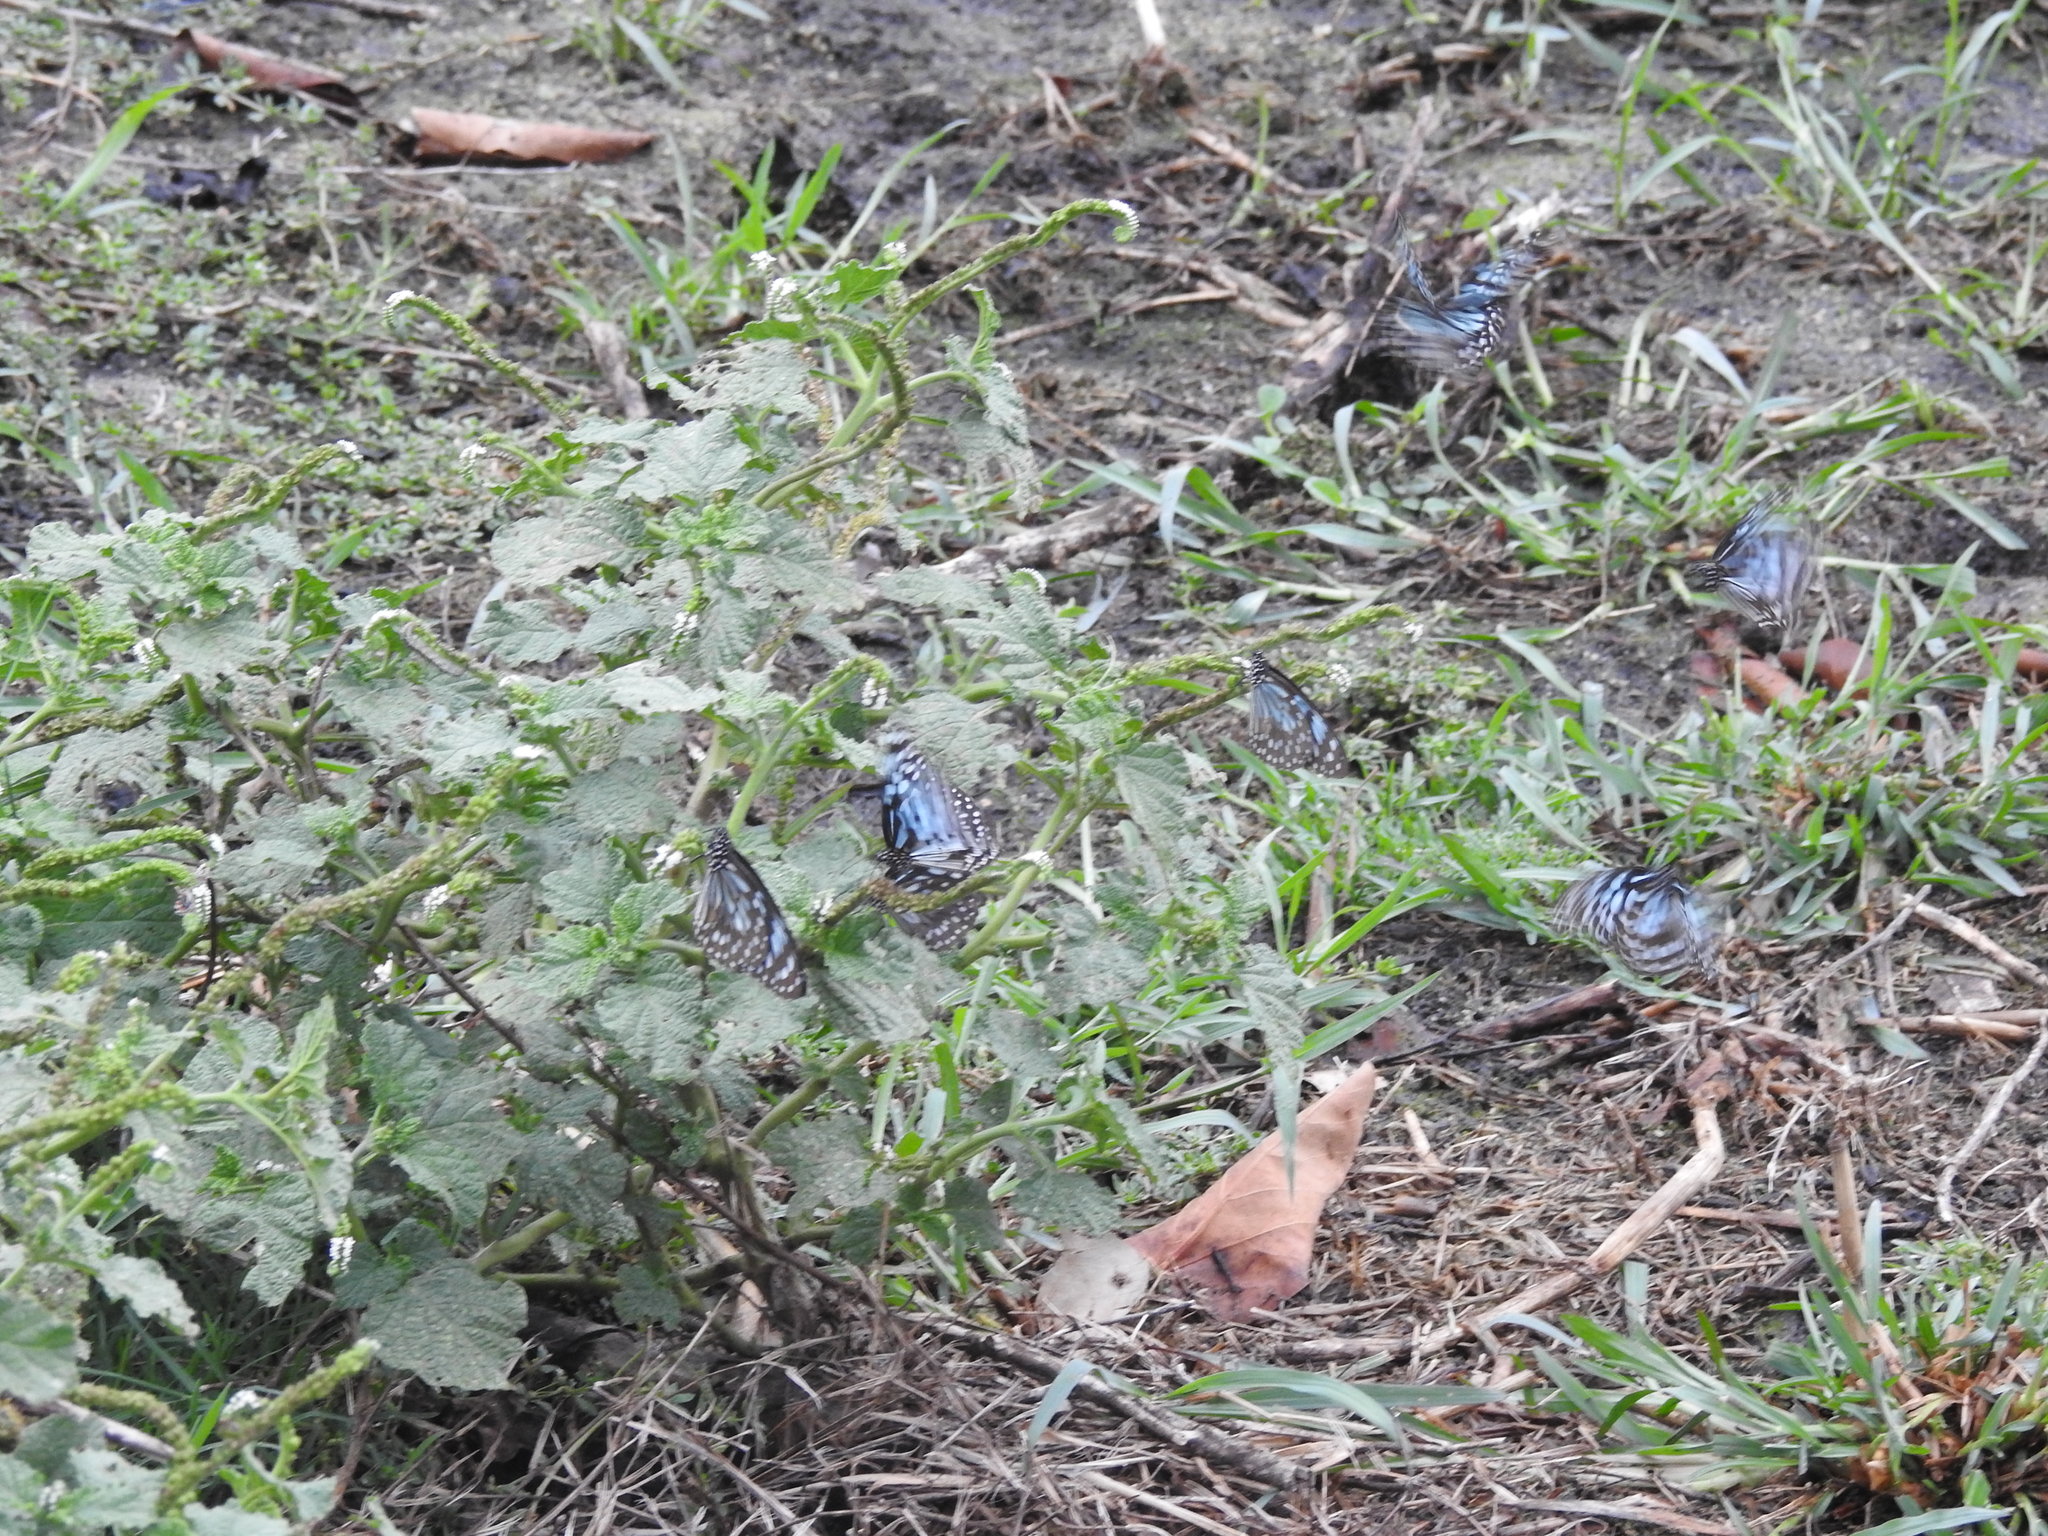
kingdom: Animalia
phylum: Arthropoda
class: Insecta
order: Lepidoptera
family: Nymphalidae
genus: Tirumala
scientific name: Tirumala septentrionis
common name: Dark blue tiger butterfly
